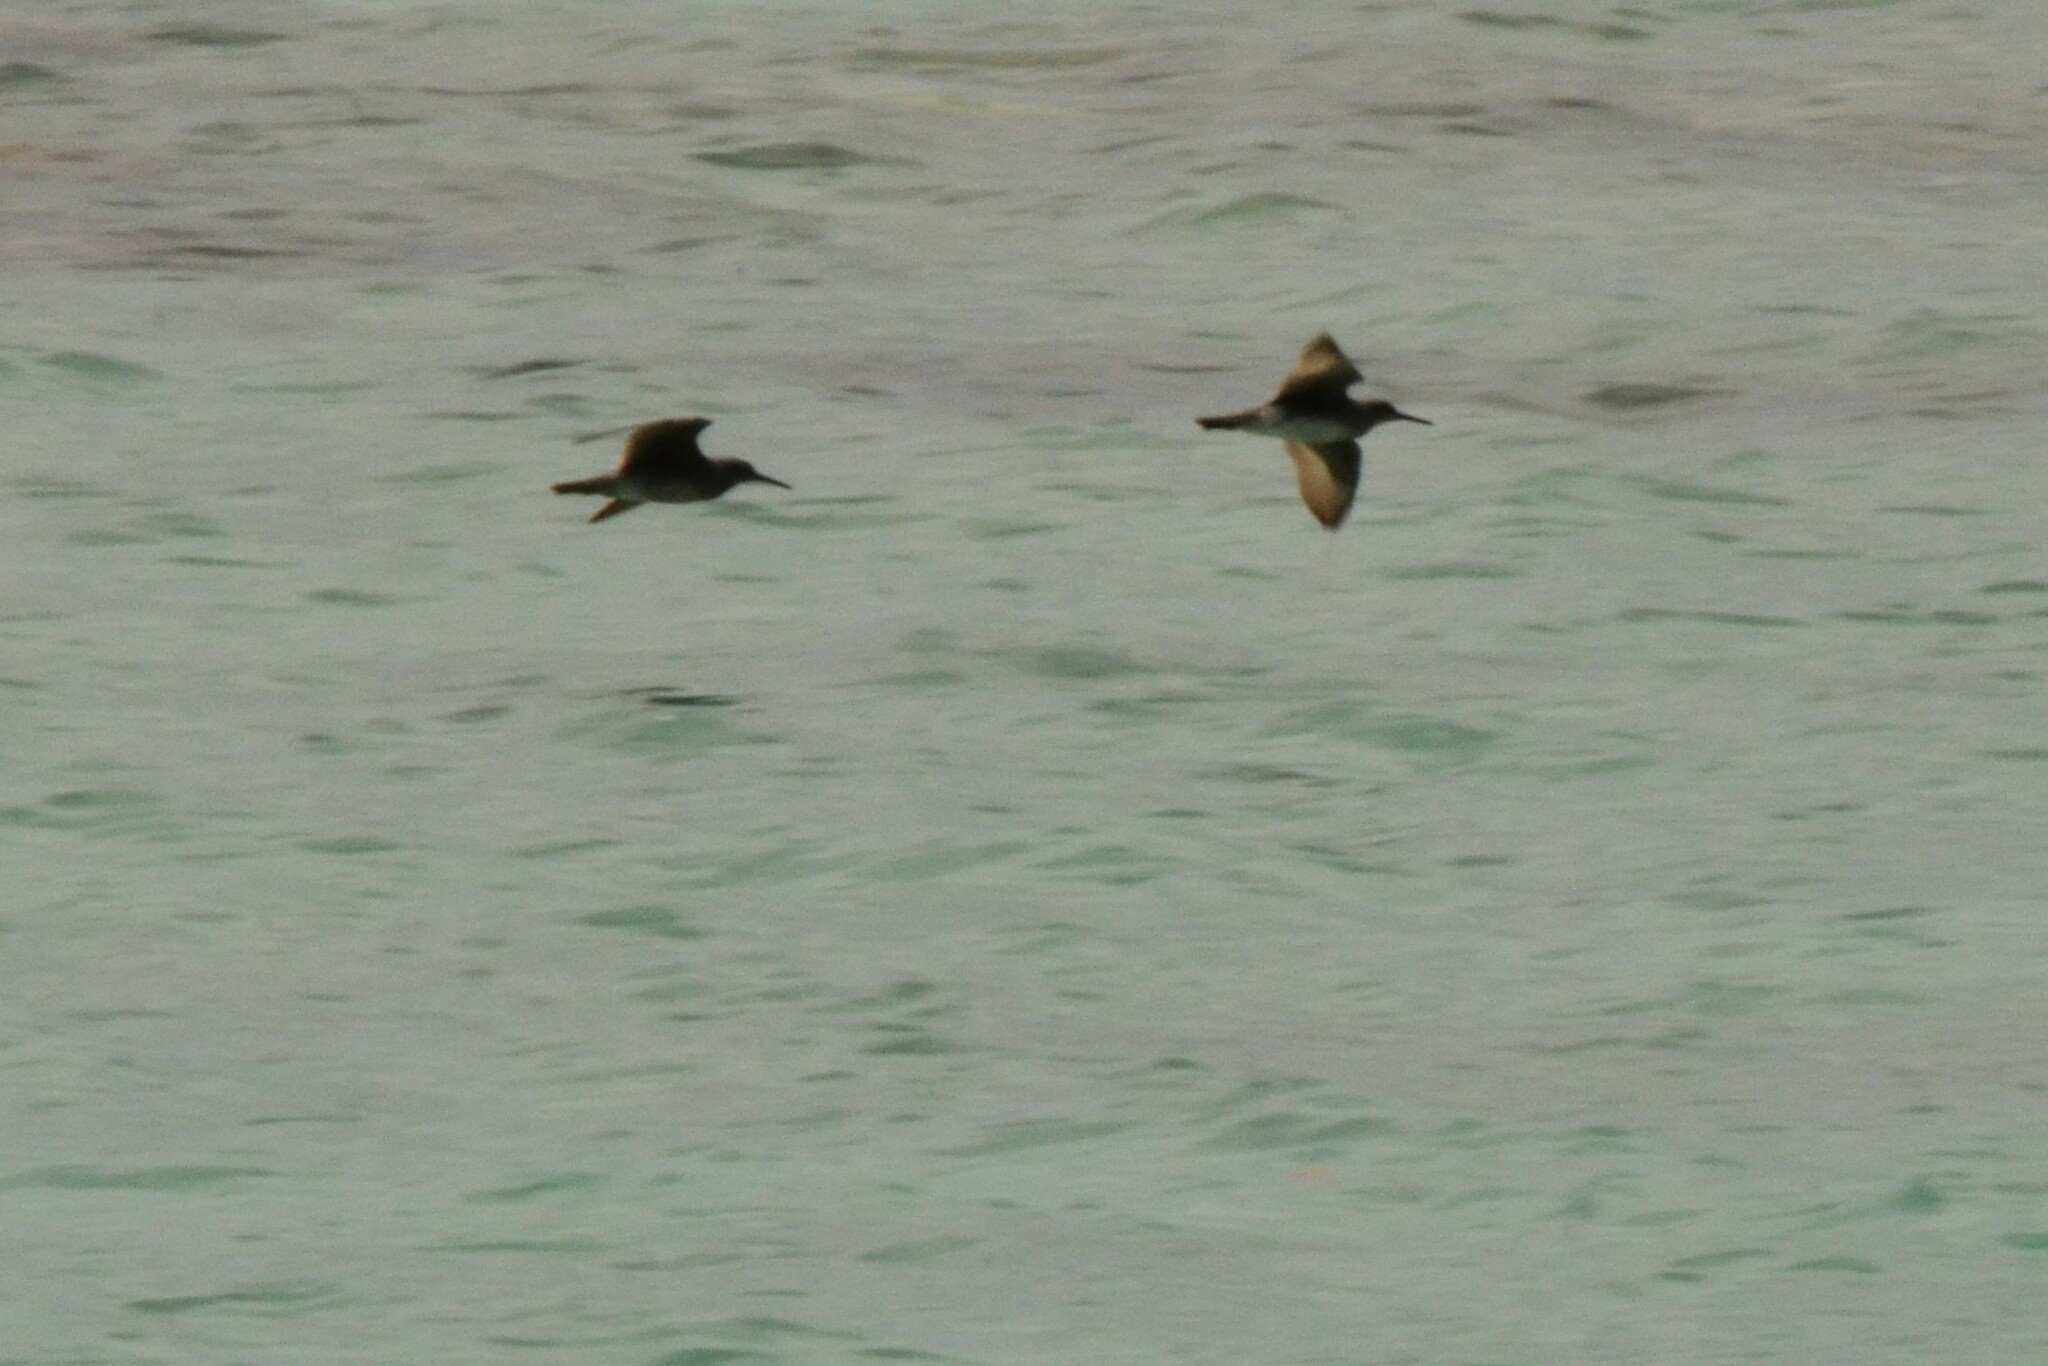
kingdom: Animalia
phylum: Chordata
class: Aves
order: Charadriiformes
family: Scolopacidae
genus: Tringa
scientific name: Tringa incana
